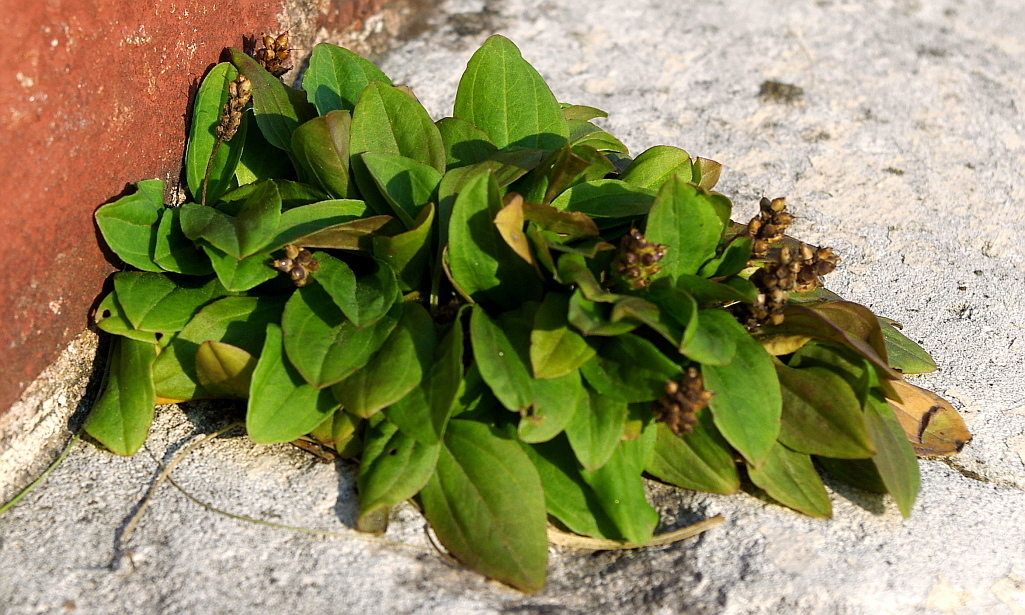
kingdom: Plantae
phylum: Tracheophyta
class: Magnoliopsida
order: Lamiales
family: Plantaginaceae
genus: Plantago
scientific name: Plantago major
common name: Common plantain
